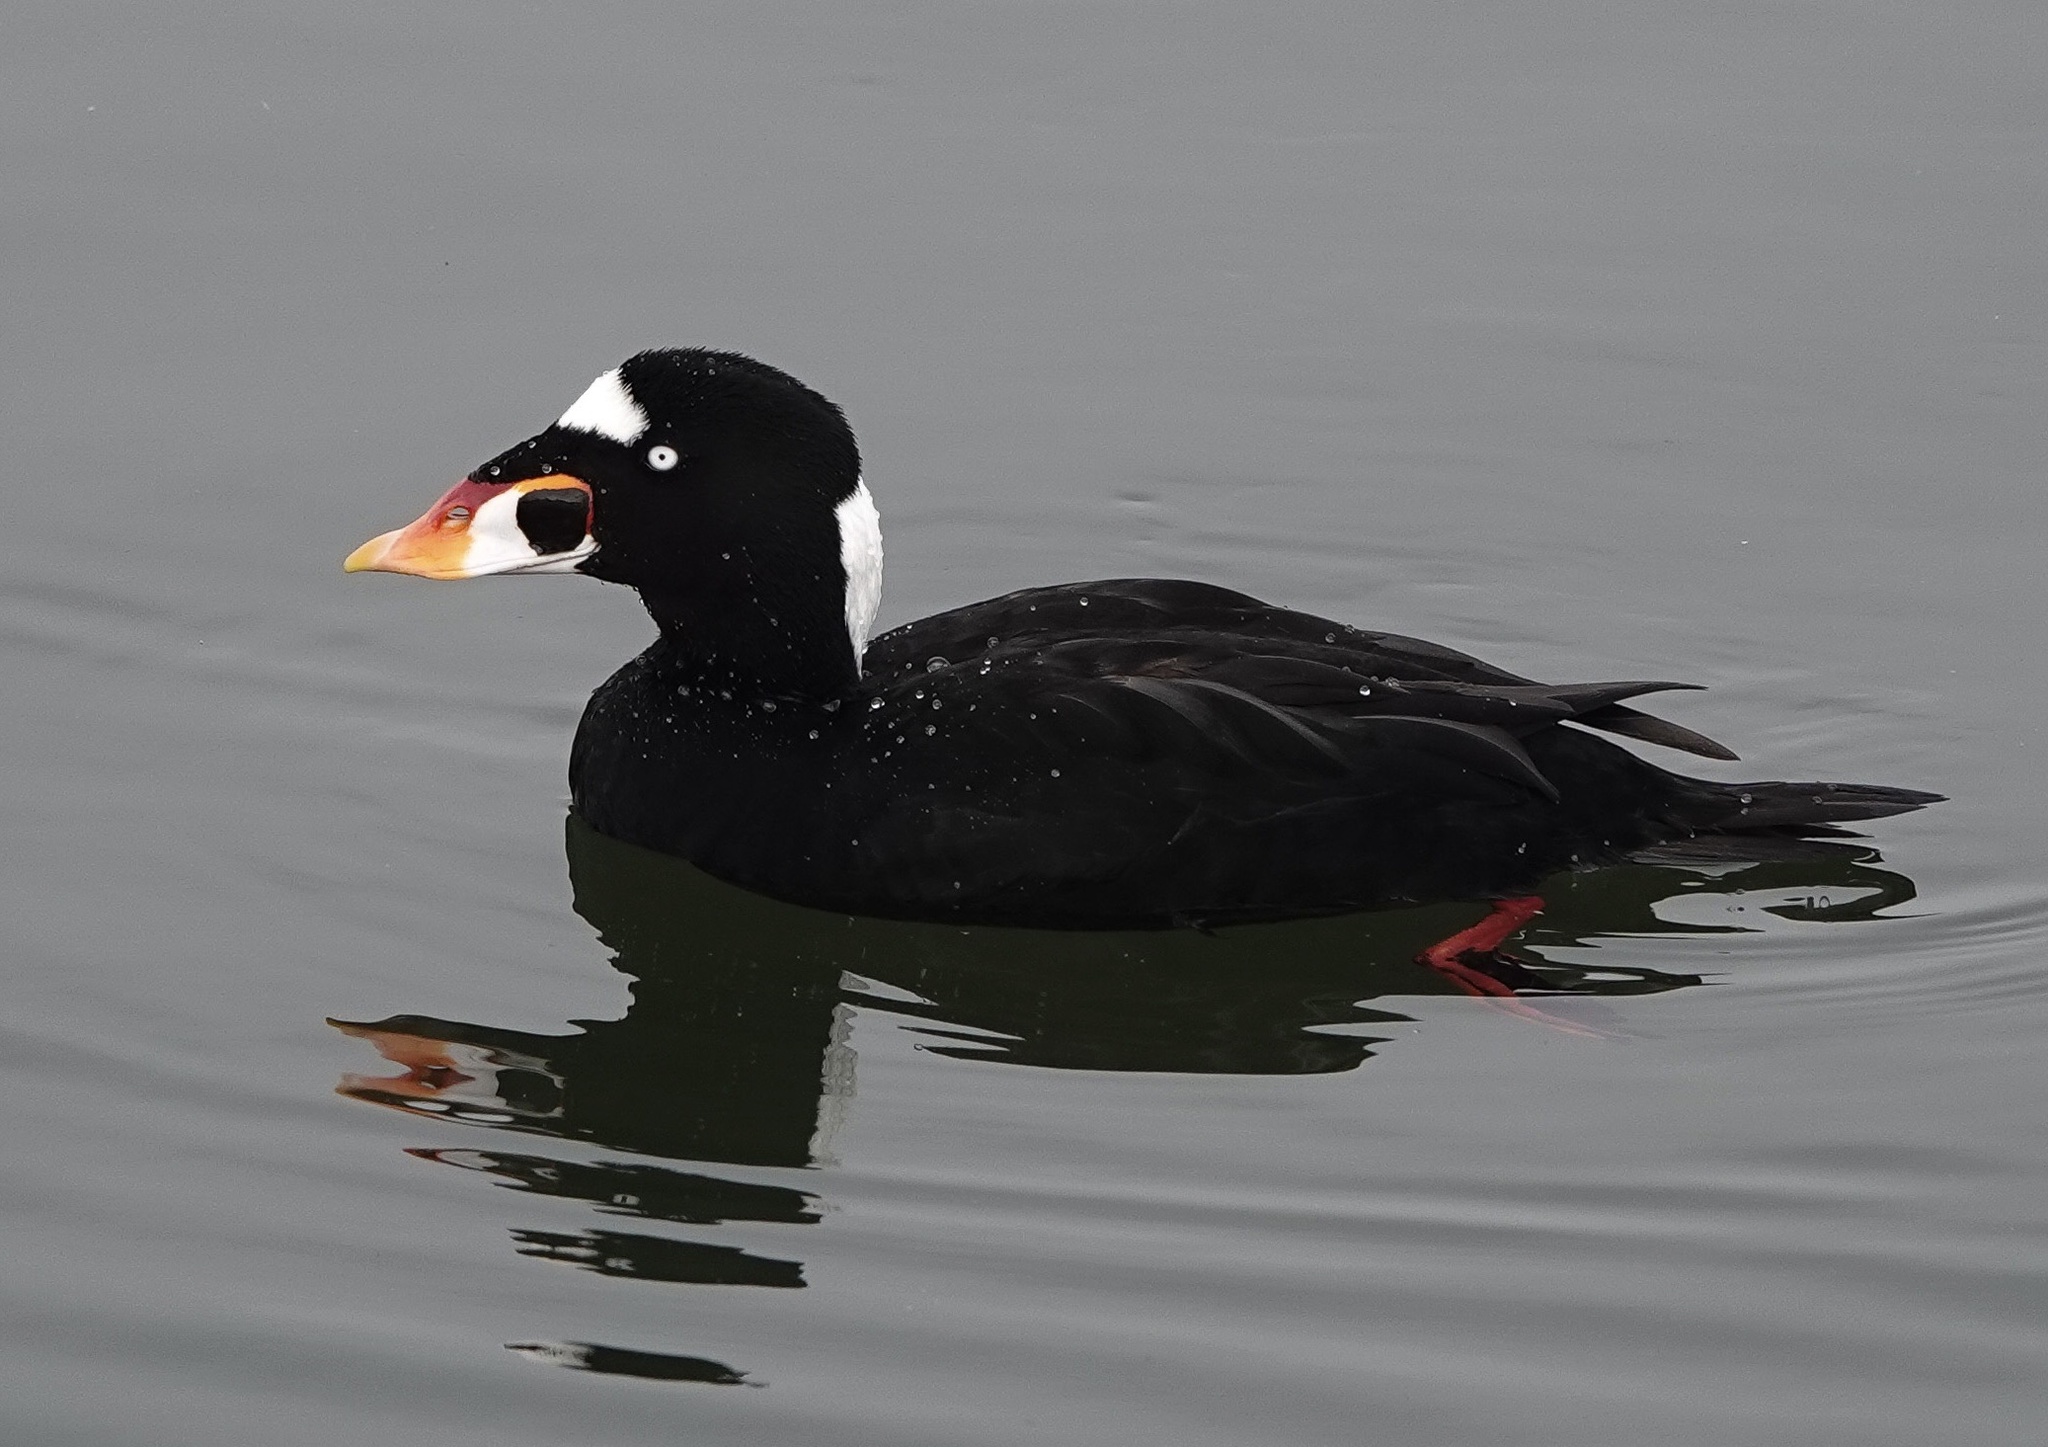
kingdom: Animalia
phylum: Chordata
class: Aves
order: Anseriformes
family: Anatidae
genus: Melanitta
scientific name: Melanitta perspicillata
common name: Surf scoter
